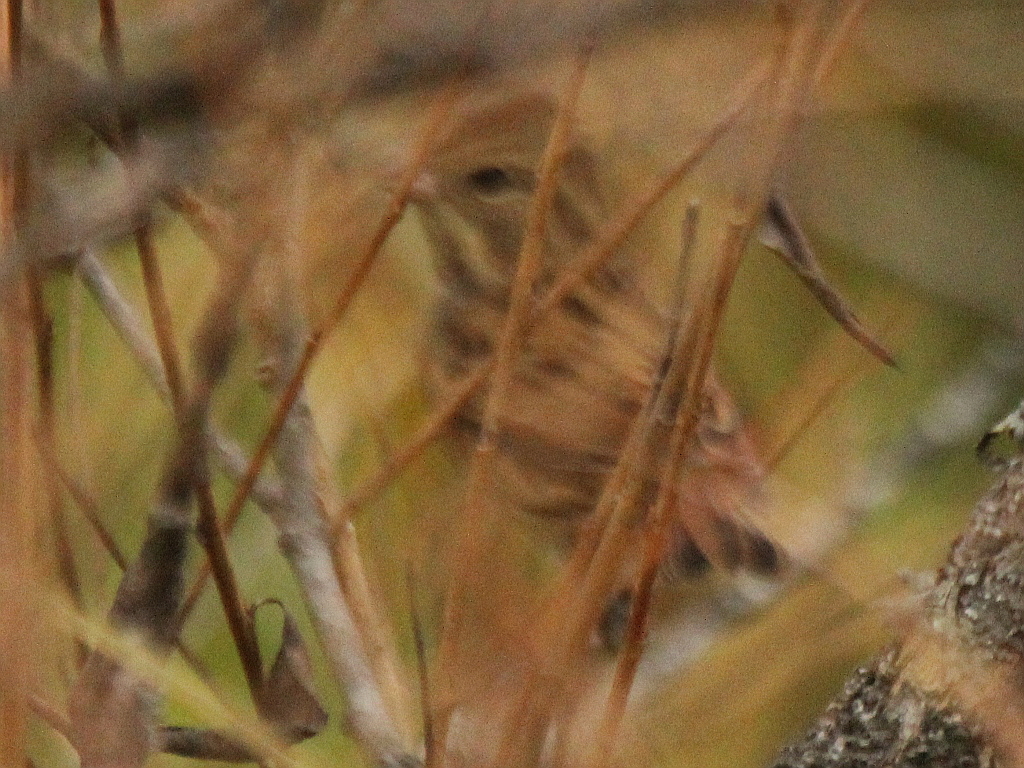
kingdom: Animalia
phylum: Chordata
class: Aves
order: Passeriformes
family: Emberizidae
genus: Emberiza
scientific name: Emberiza spodocephala
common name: Black-faced bunting
